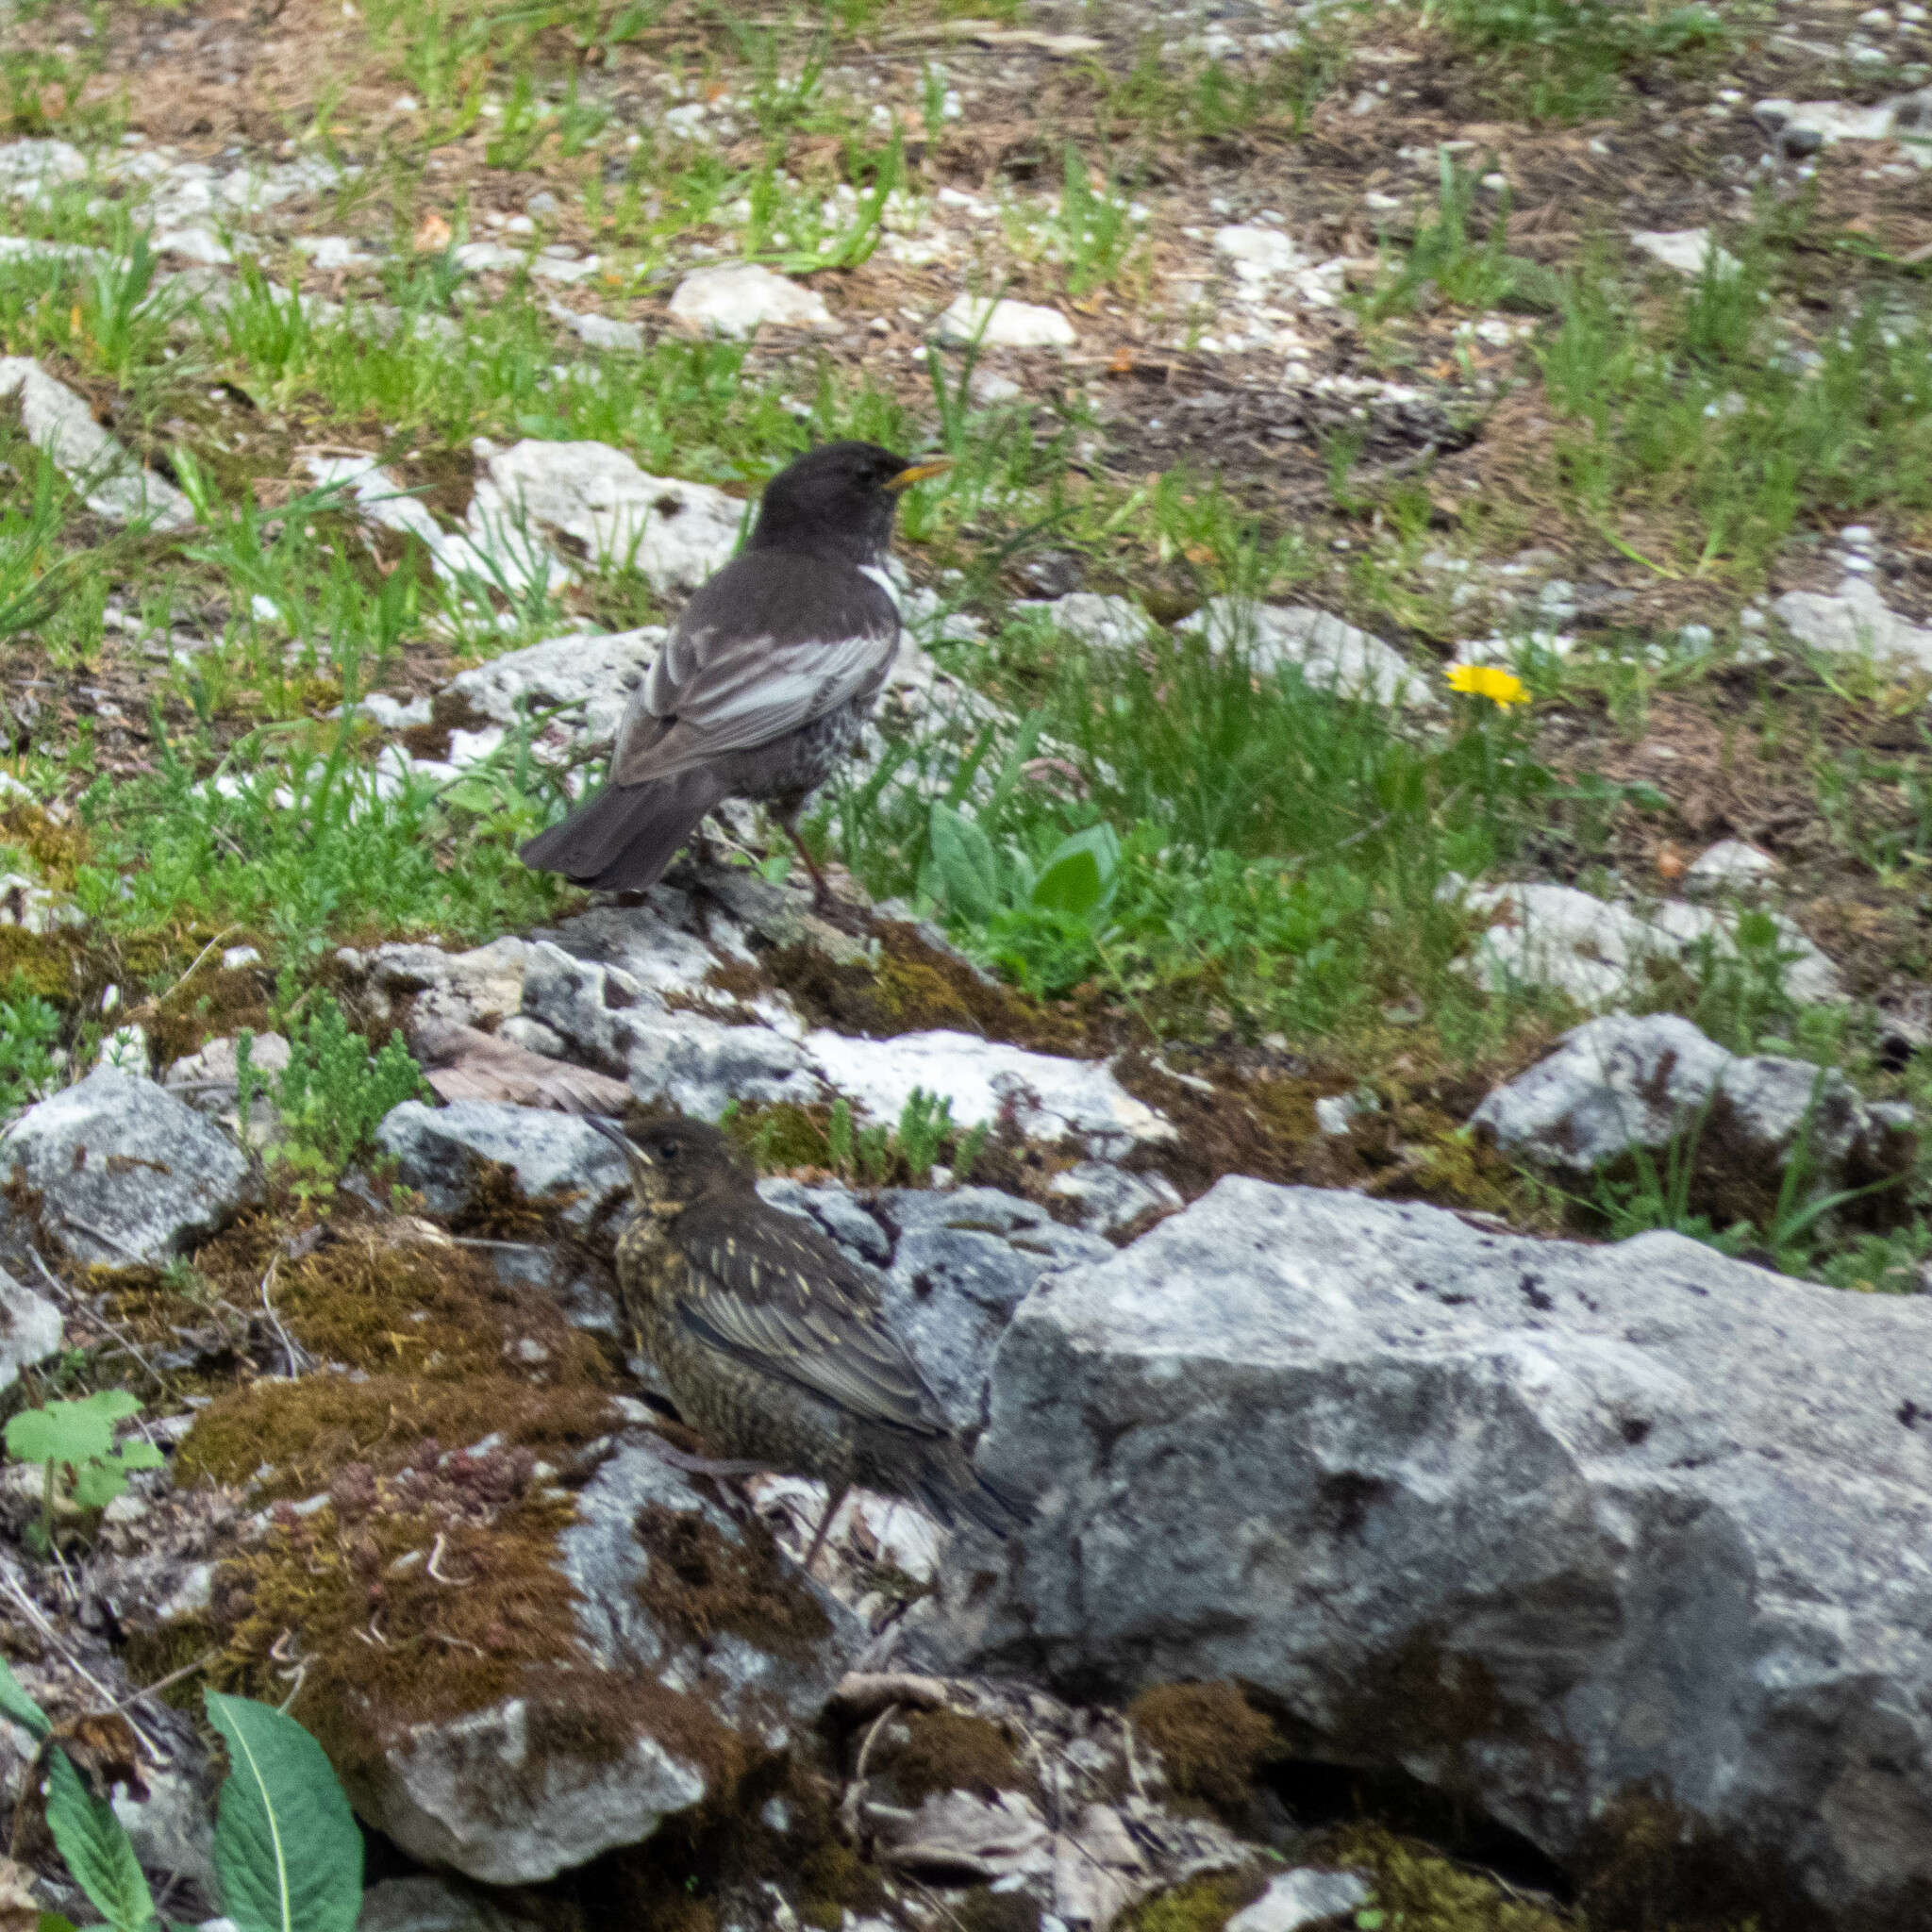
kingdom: Animalia
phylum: Chordata
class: Aves
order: Passeriformes
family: Turdidae
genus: Turdus
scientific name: Turdus torquatus
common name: Ring ouzel
